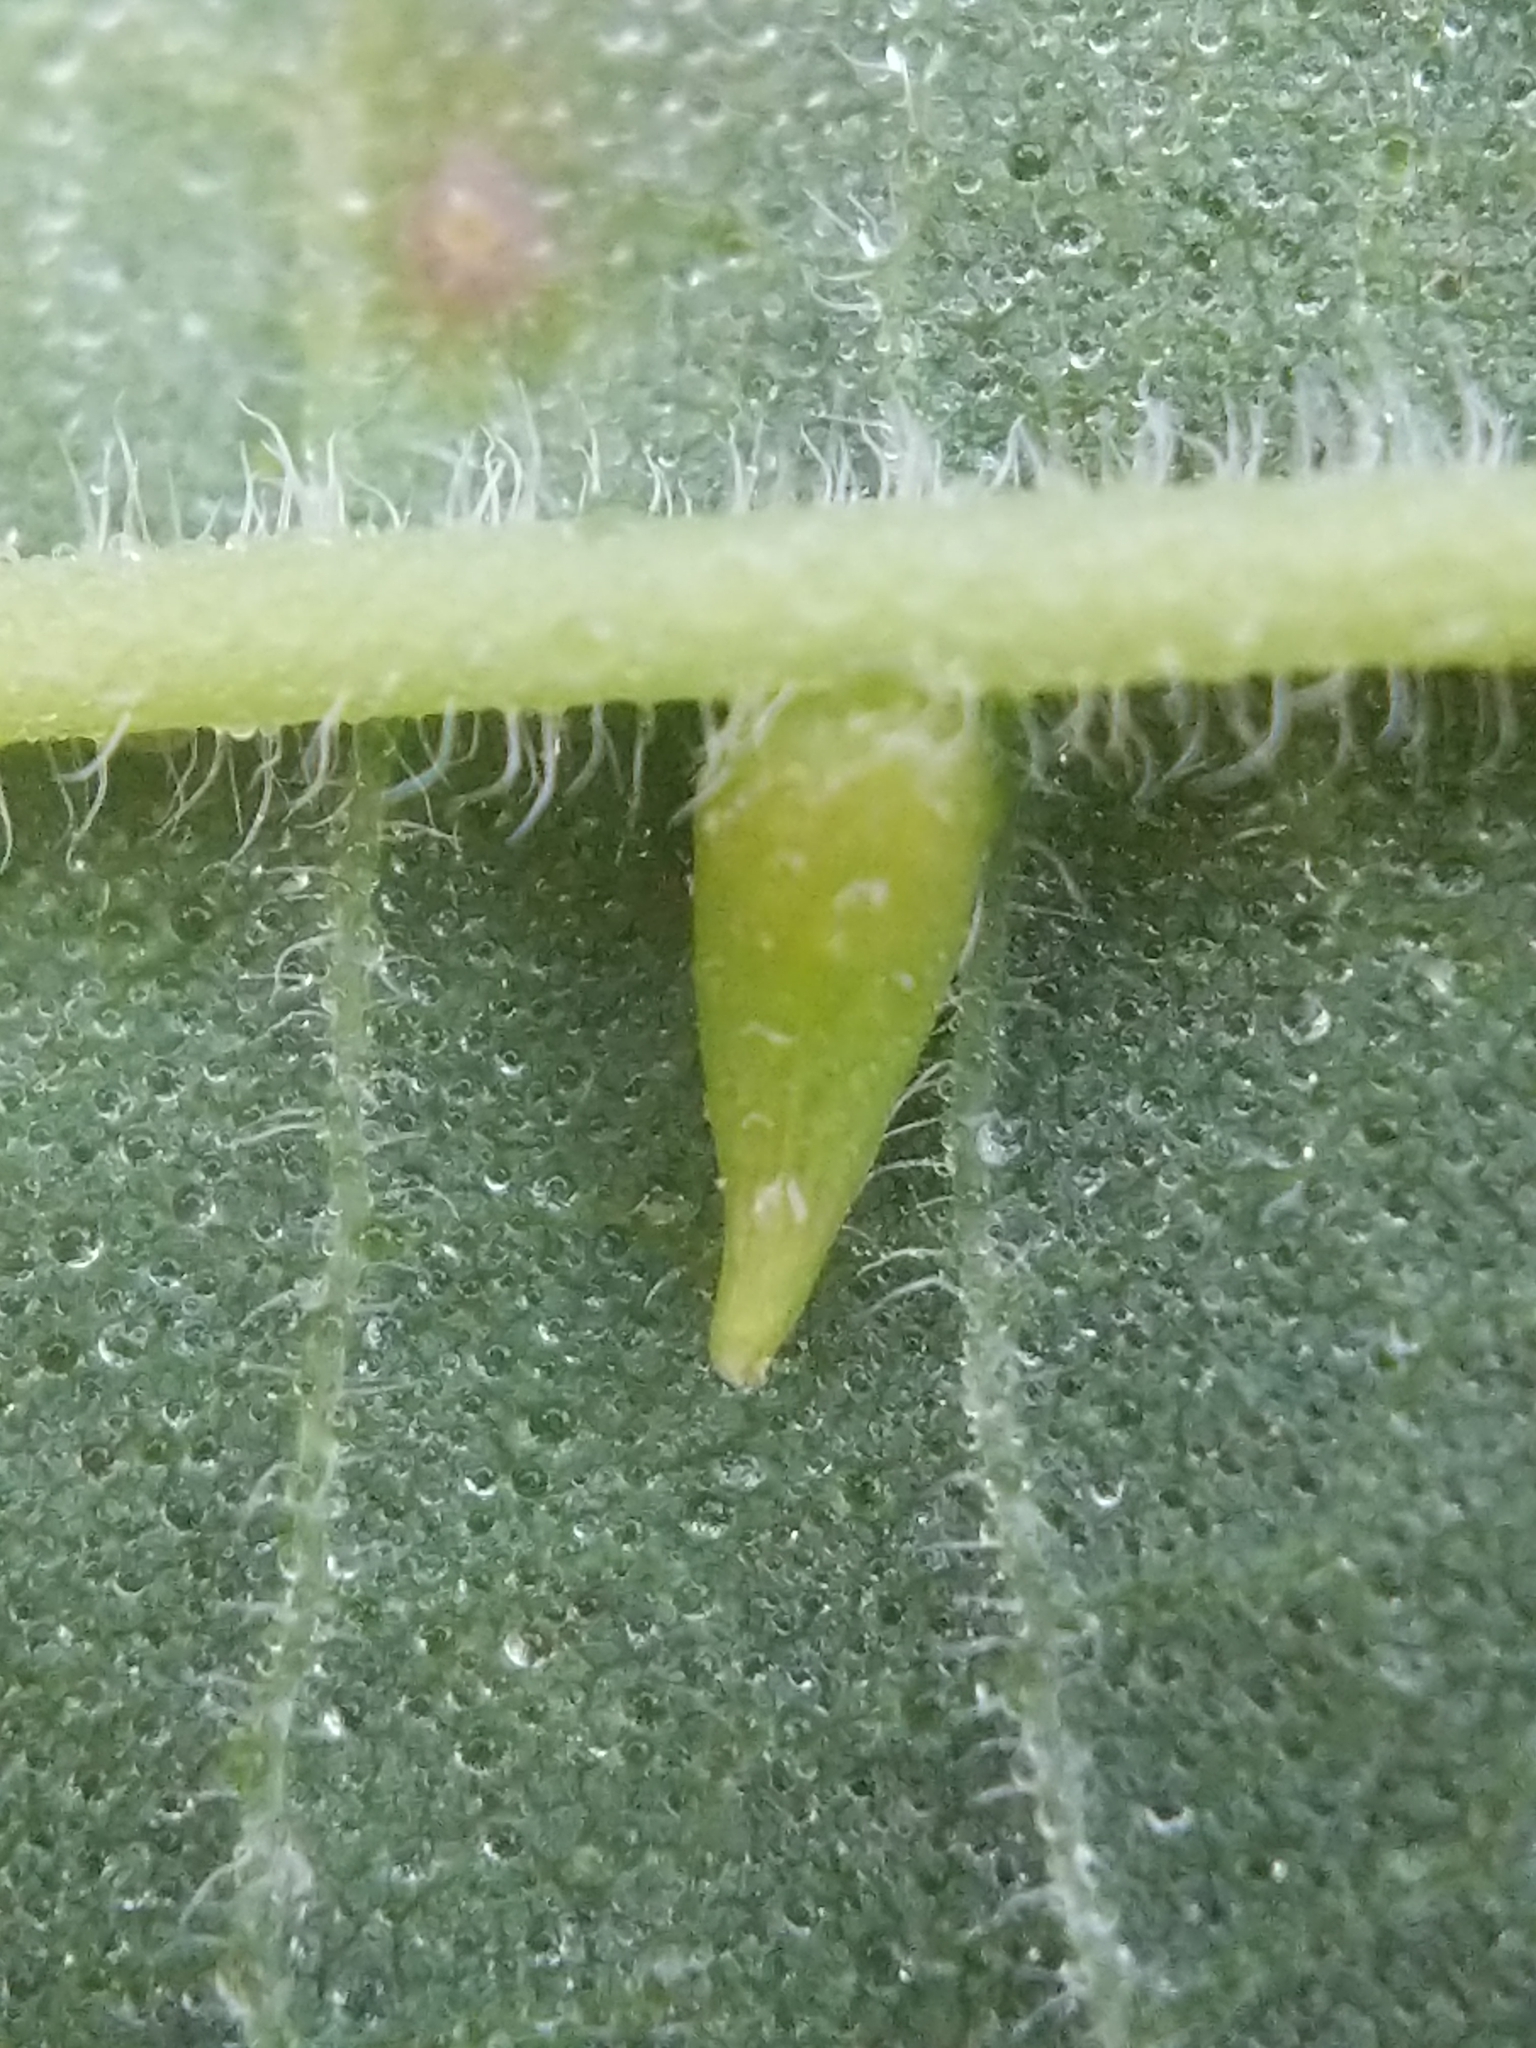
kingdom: Animalia
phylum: Arthropoda
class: Insecta
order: Diptera
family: Cecidomyiidae
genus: Celticecis
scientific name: Celticecis supina
